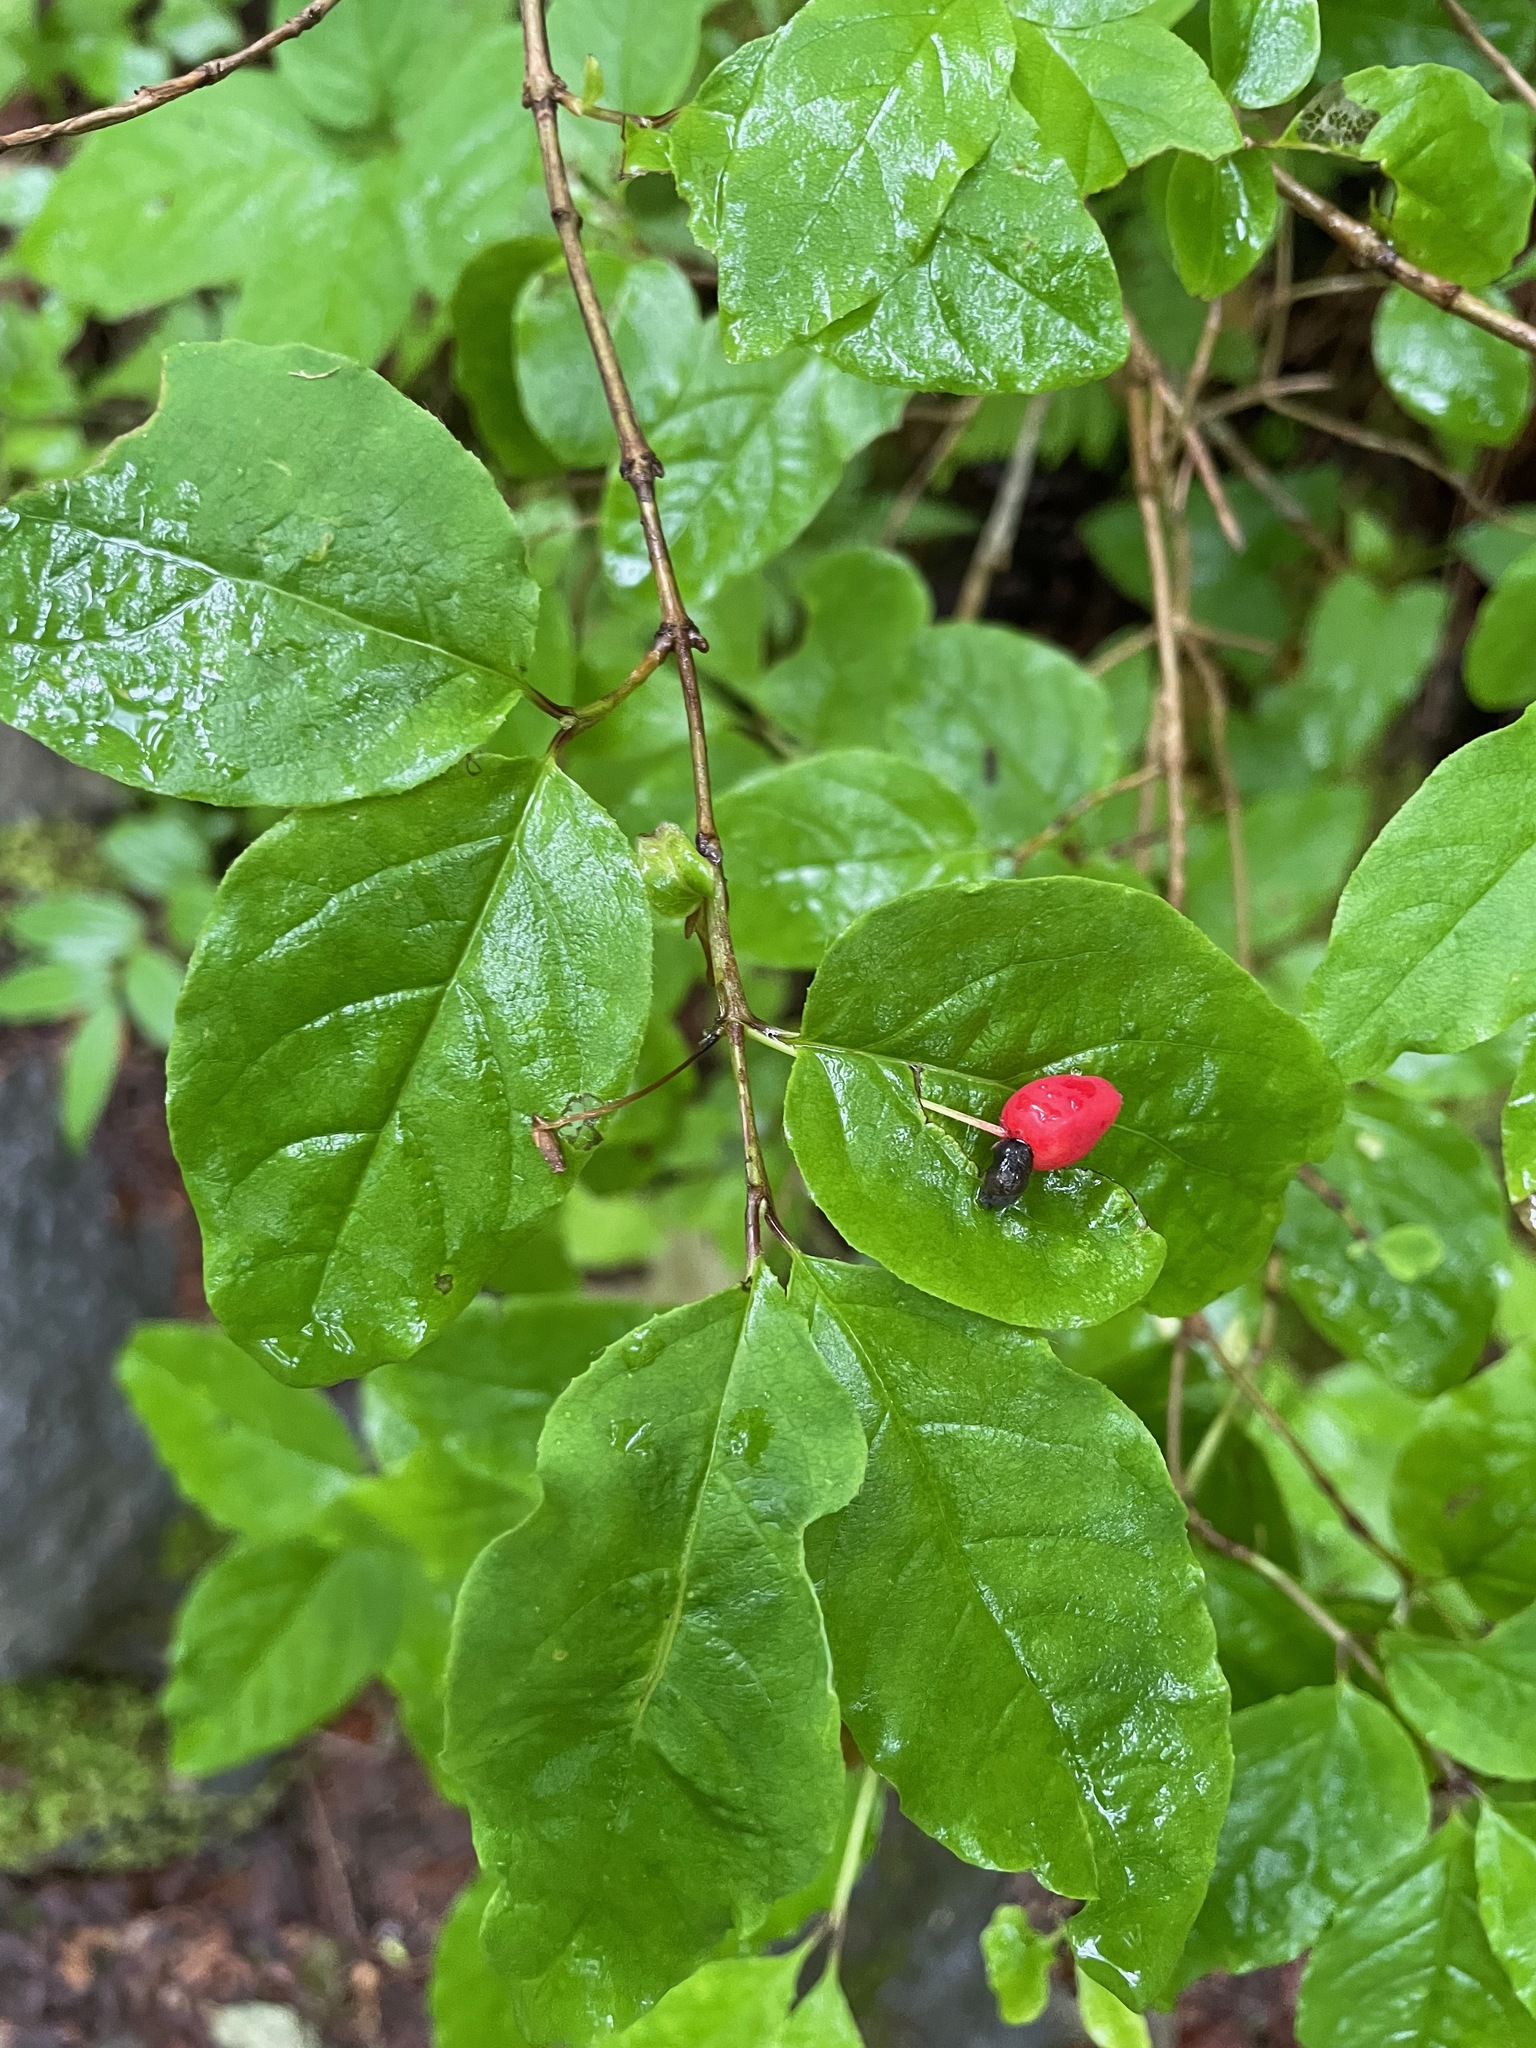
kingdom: Plantae
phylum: Tracheophyta
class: Magnoliopsida
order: Dipsacales
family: Caprifoliaceae
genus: Lonicera
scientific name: Lonicera canadensis
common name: American fly-honeysuckle
